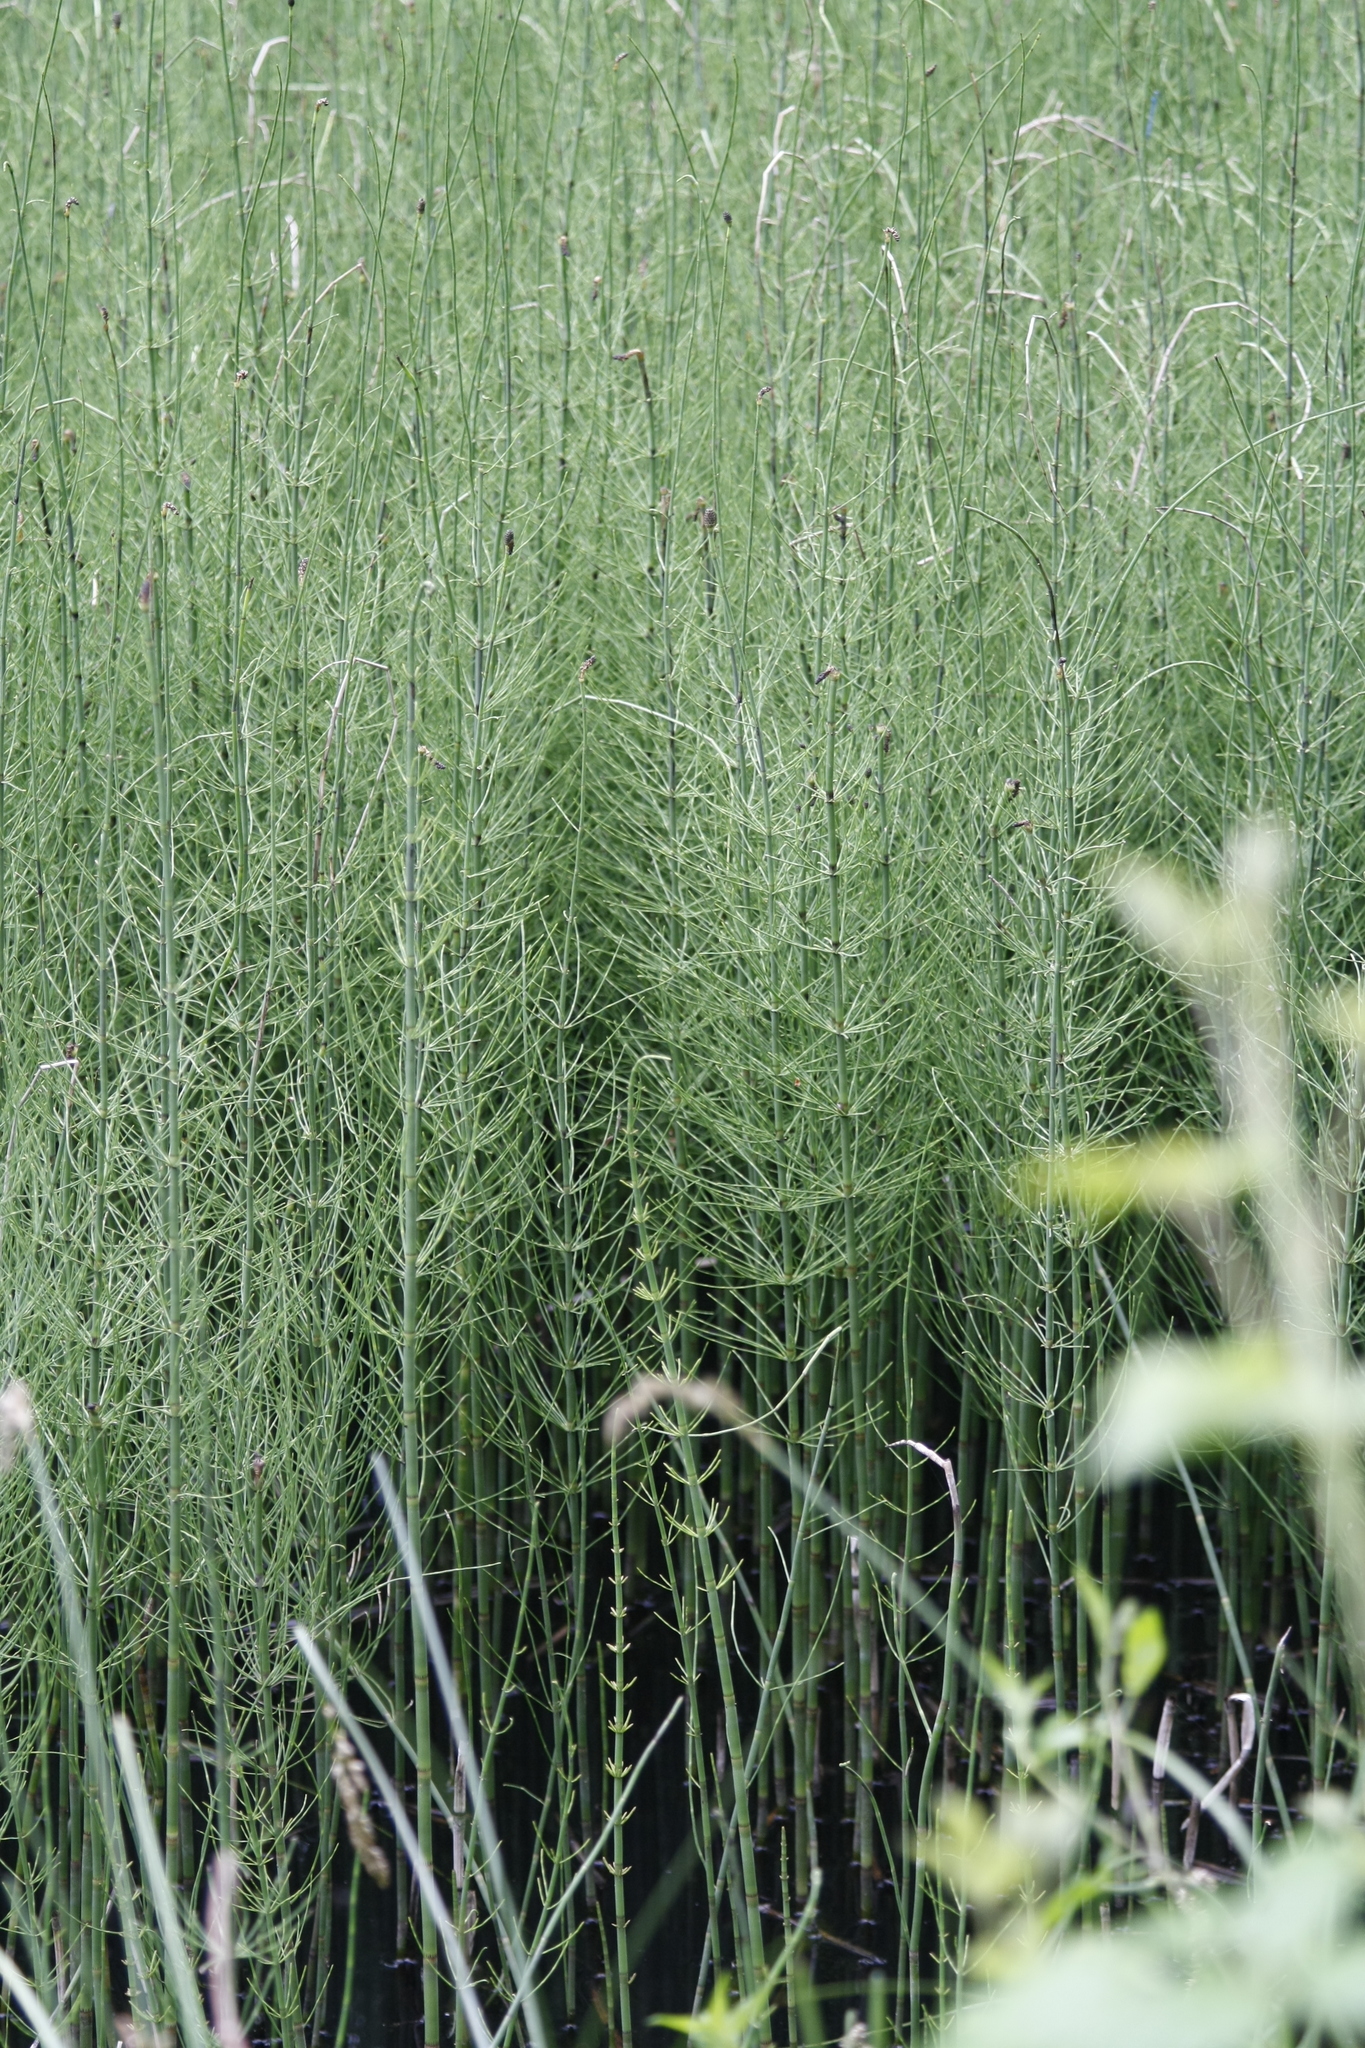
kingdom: Plantae
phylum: Tracheophyta
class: Polypodiopsida
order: Equisetales
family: Equisetaceae
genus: Equisetum
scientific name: Equisetum fluviatile
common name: Water horsetail
